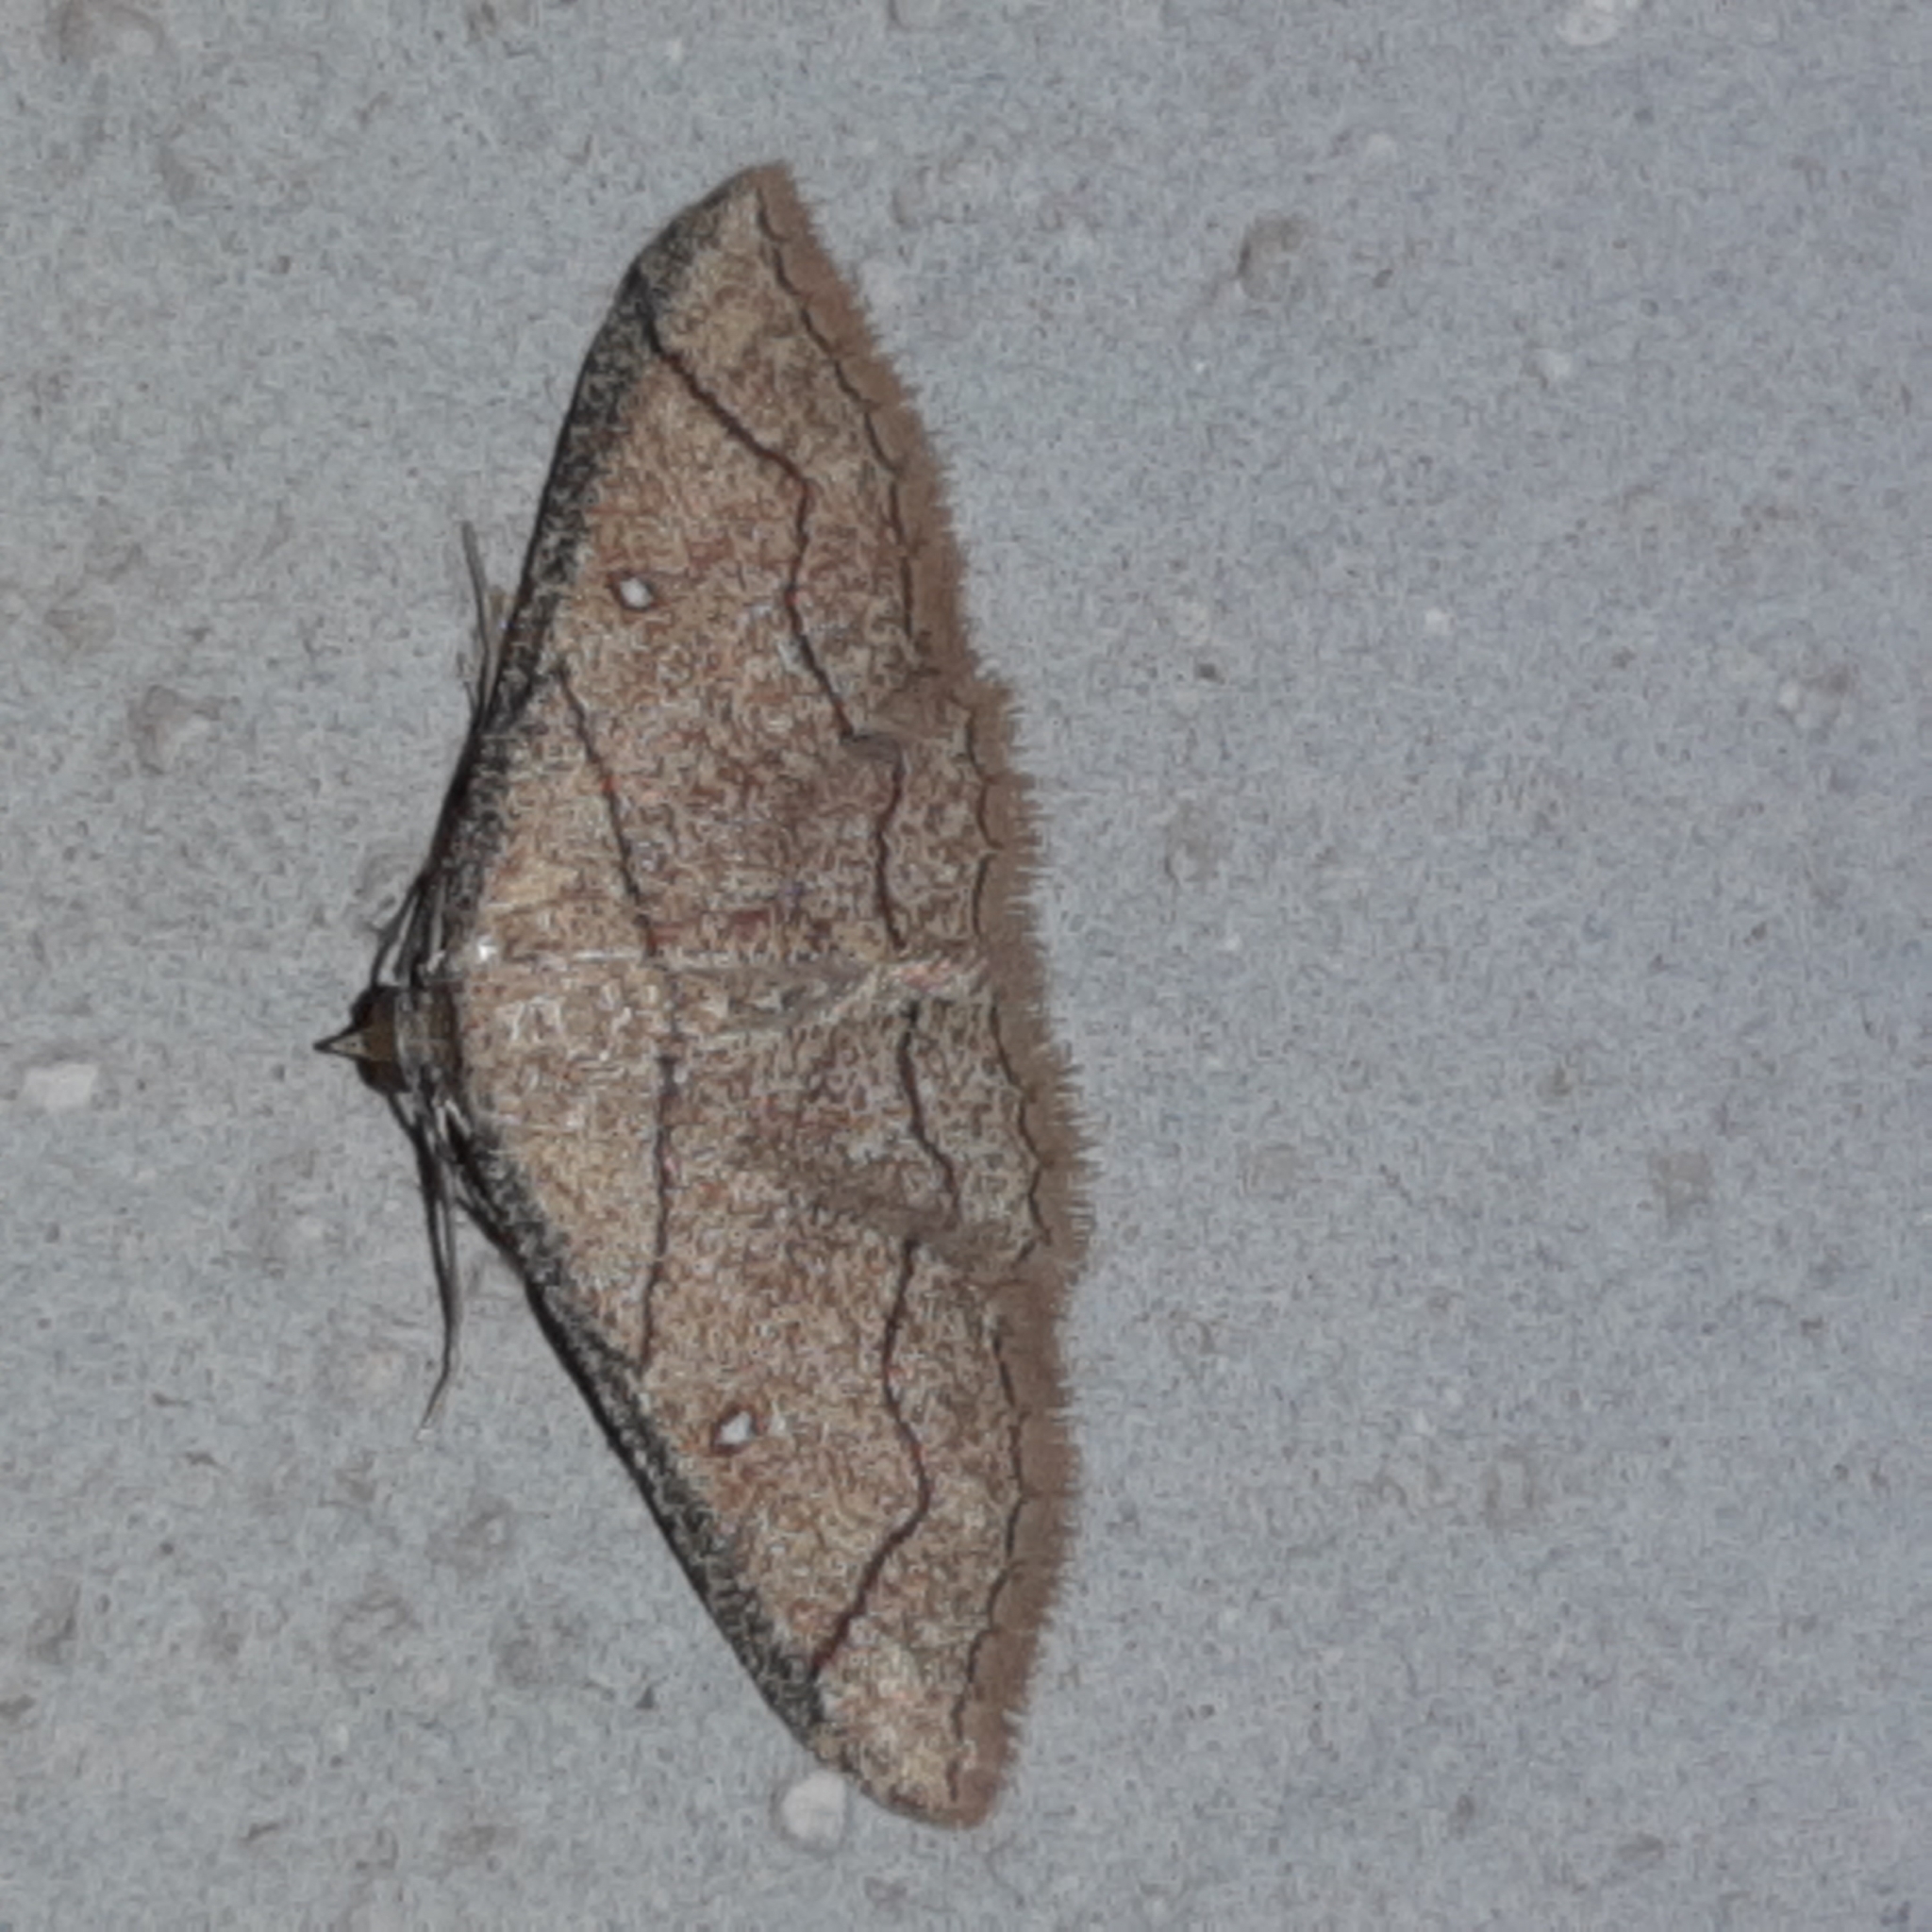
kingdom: Animalia
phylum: Arthropoda
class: Insecta
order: Lepidoptera
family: Geometridae
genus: Cyclophora
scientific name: Cyclophora coecaria
